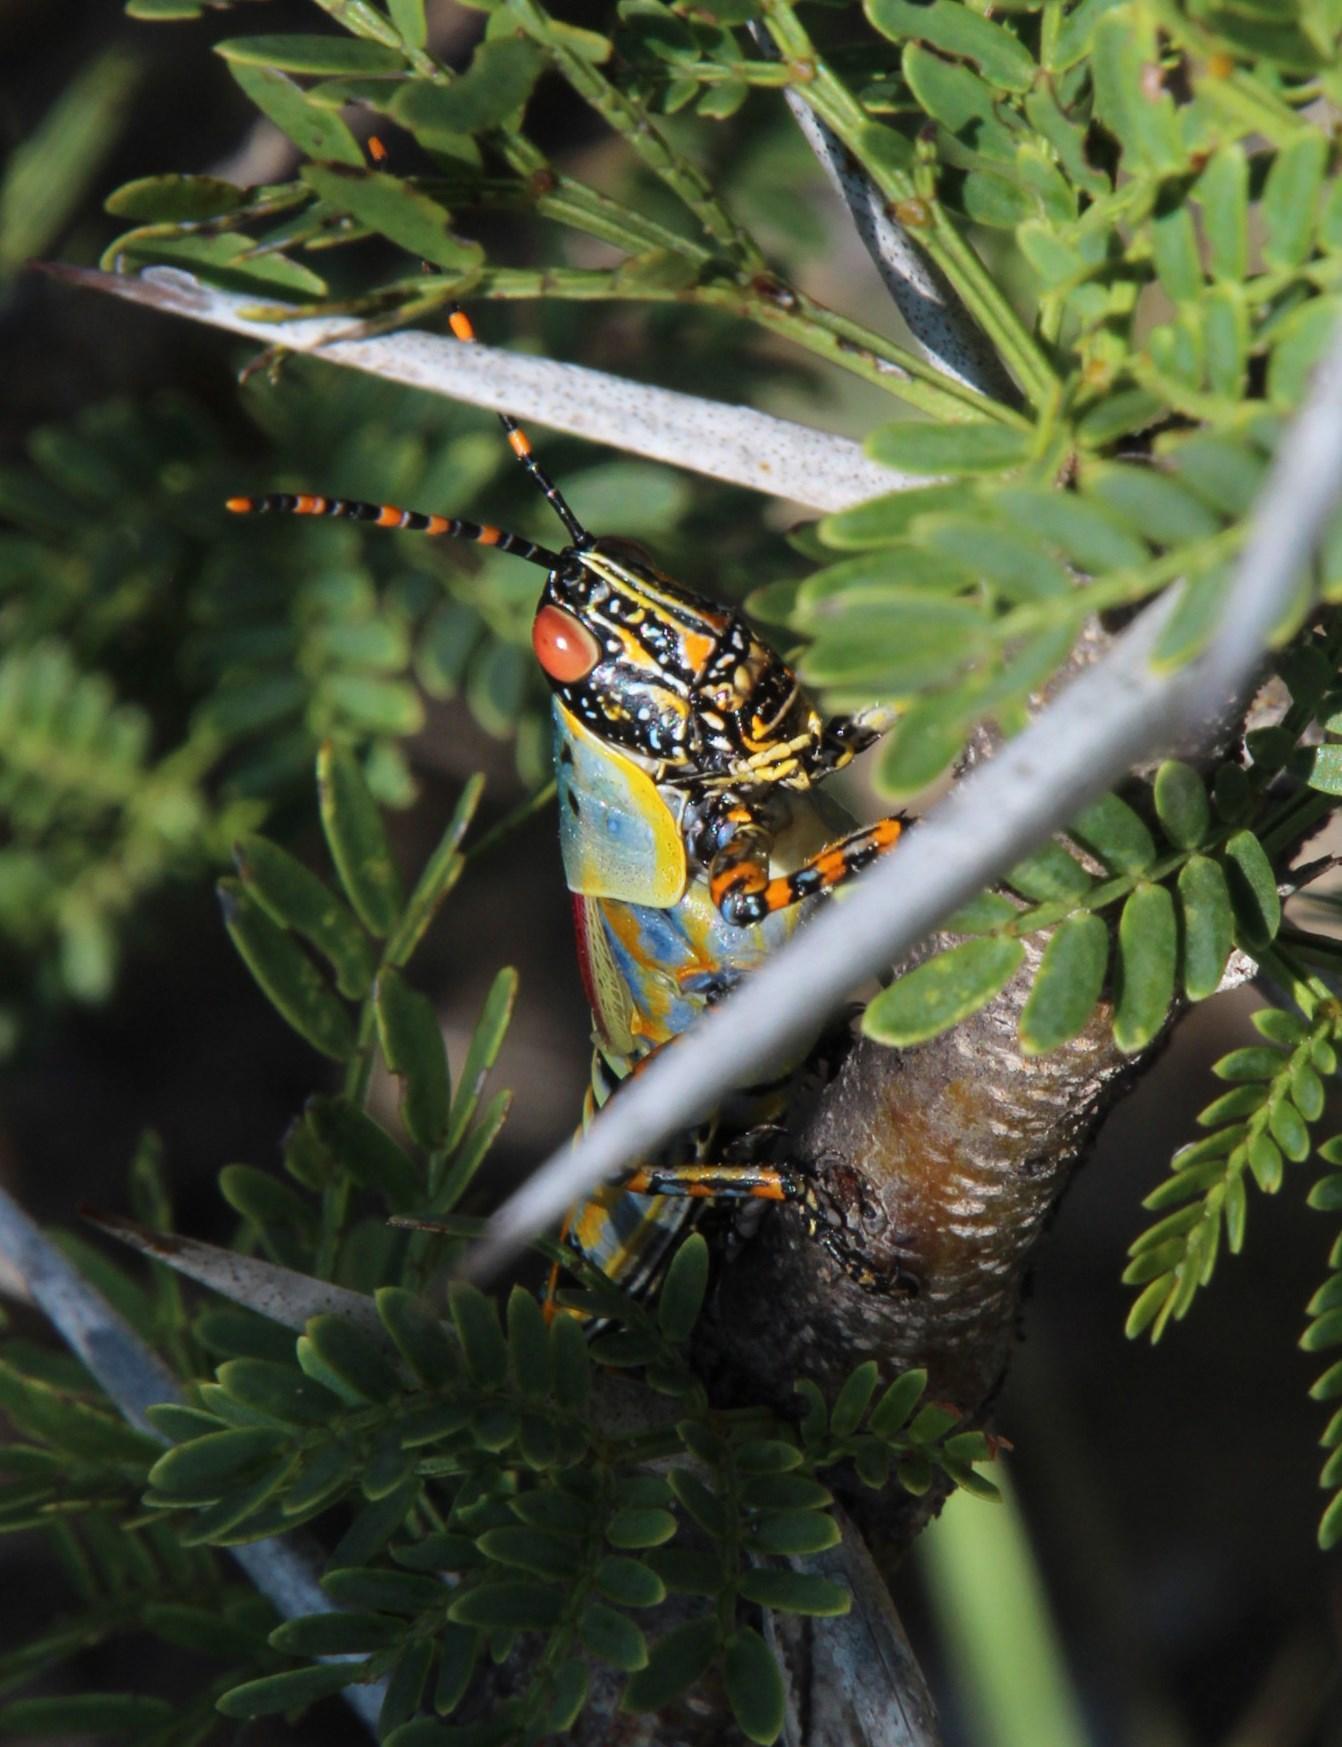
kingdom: Animalia
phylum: Arthropoda
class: Insecta
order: Orthoptera
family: Pyrgomorphidae
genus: Zonocerus
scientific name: Zonocerus elegans
